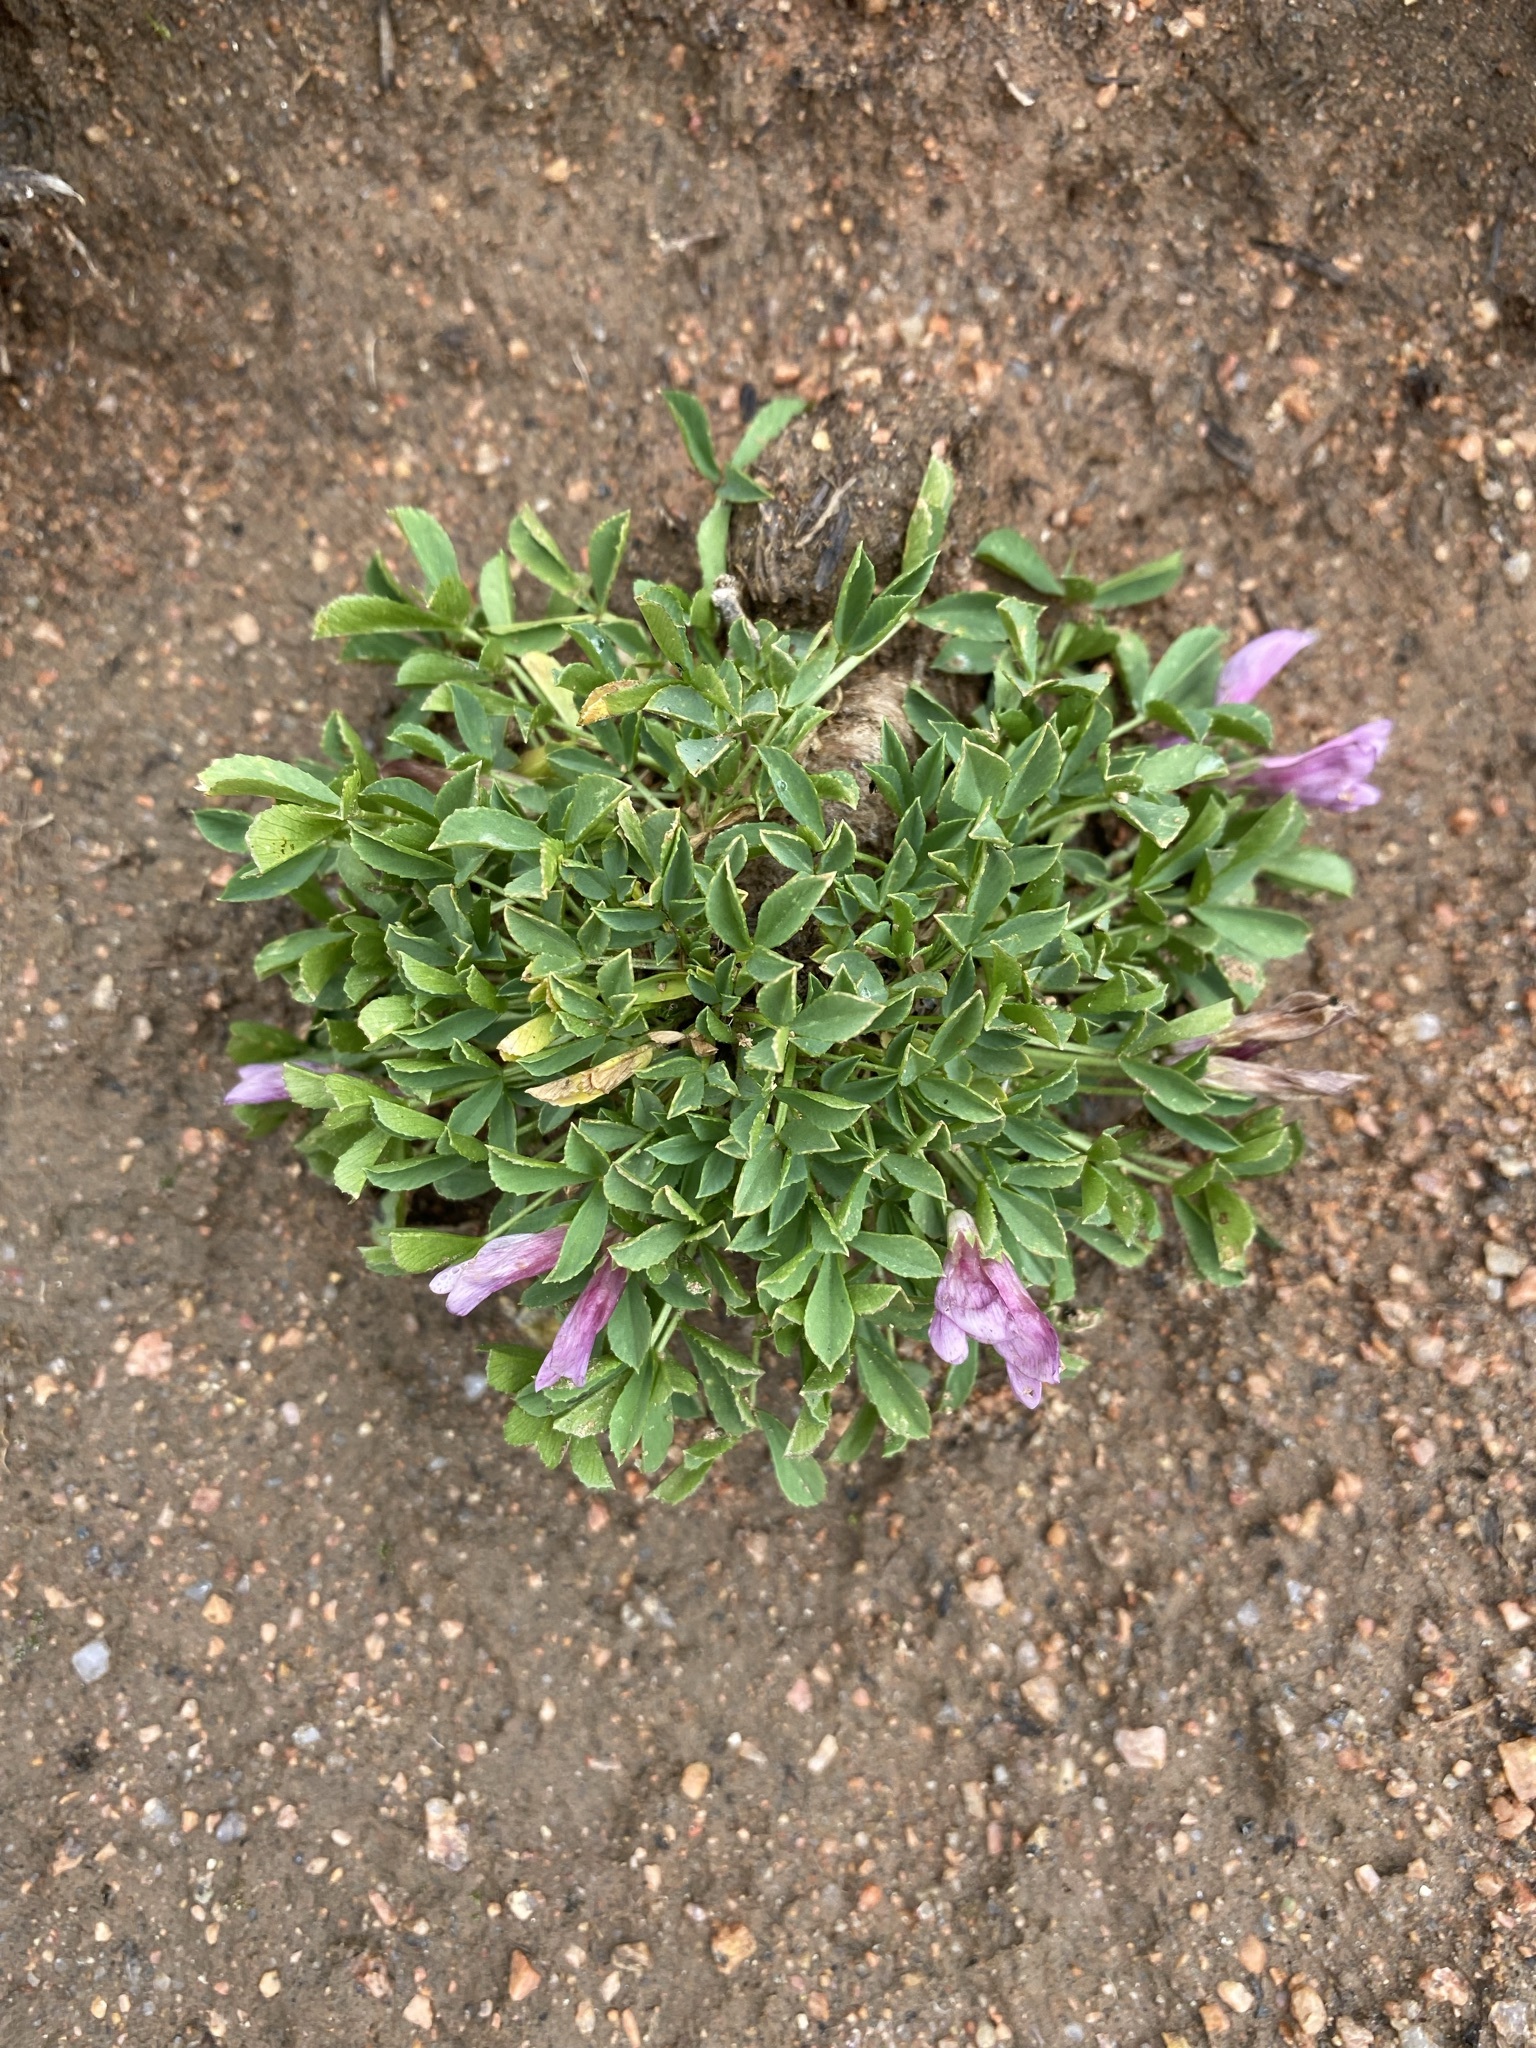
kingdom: Plantae
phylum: Tracheophyta
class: Magnoliopsida
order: Fabales
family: Fabaceae
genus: Trifolium
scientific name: Trifolium nanum
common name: Tundra clover
